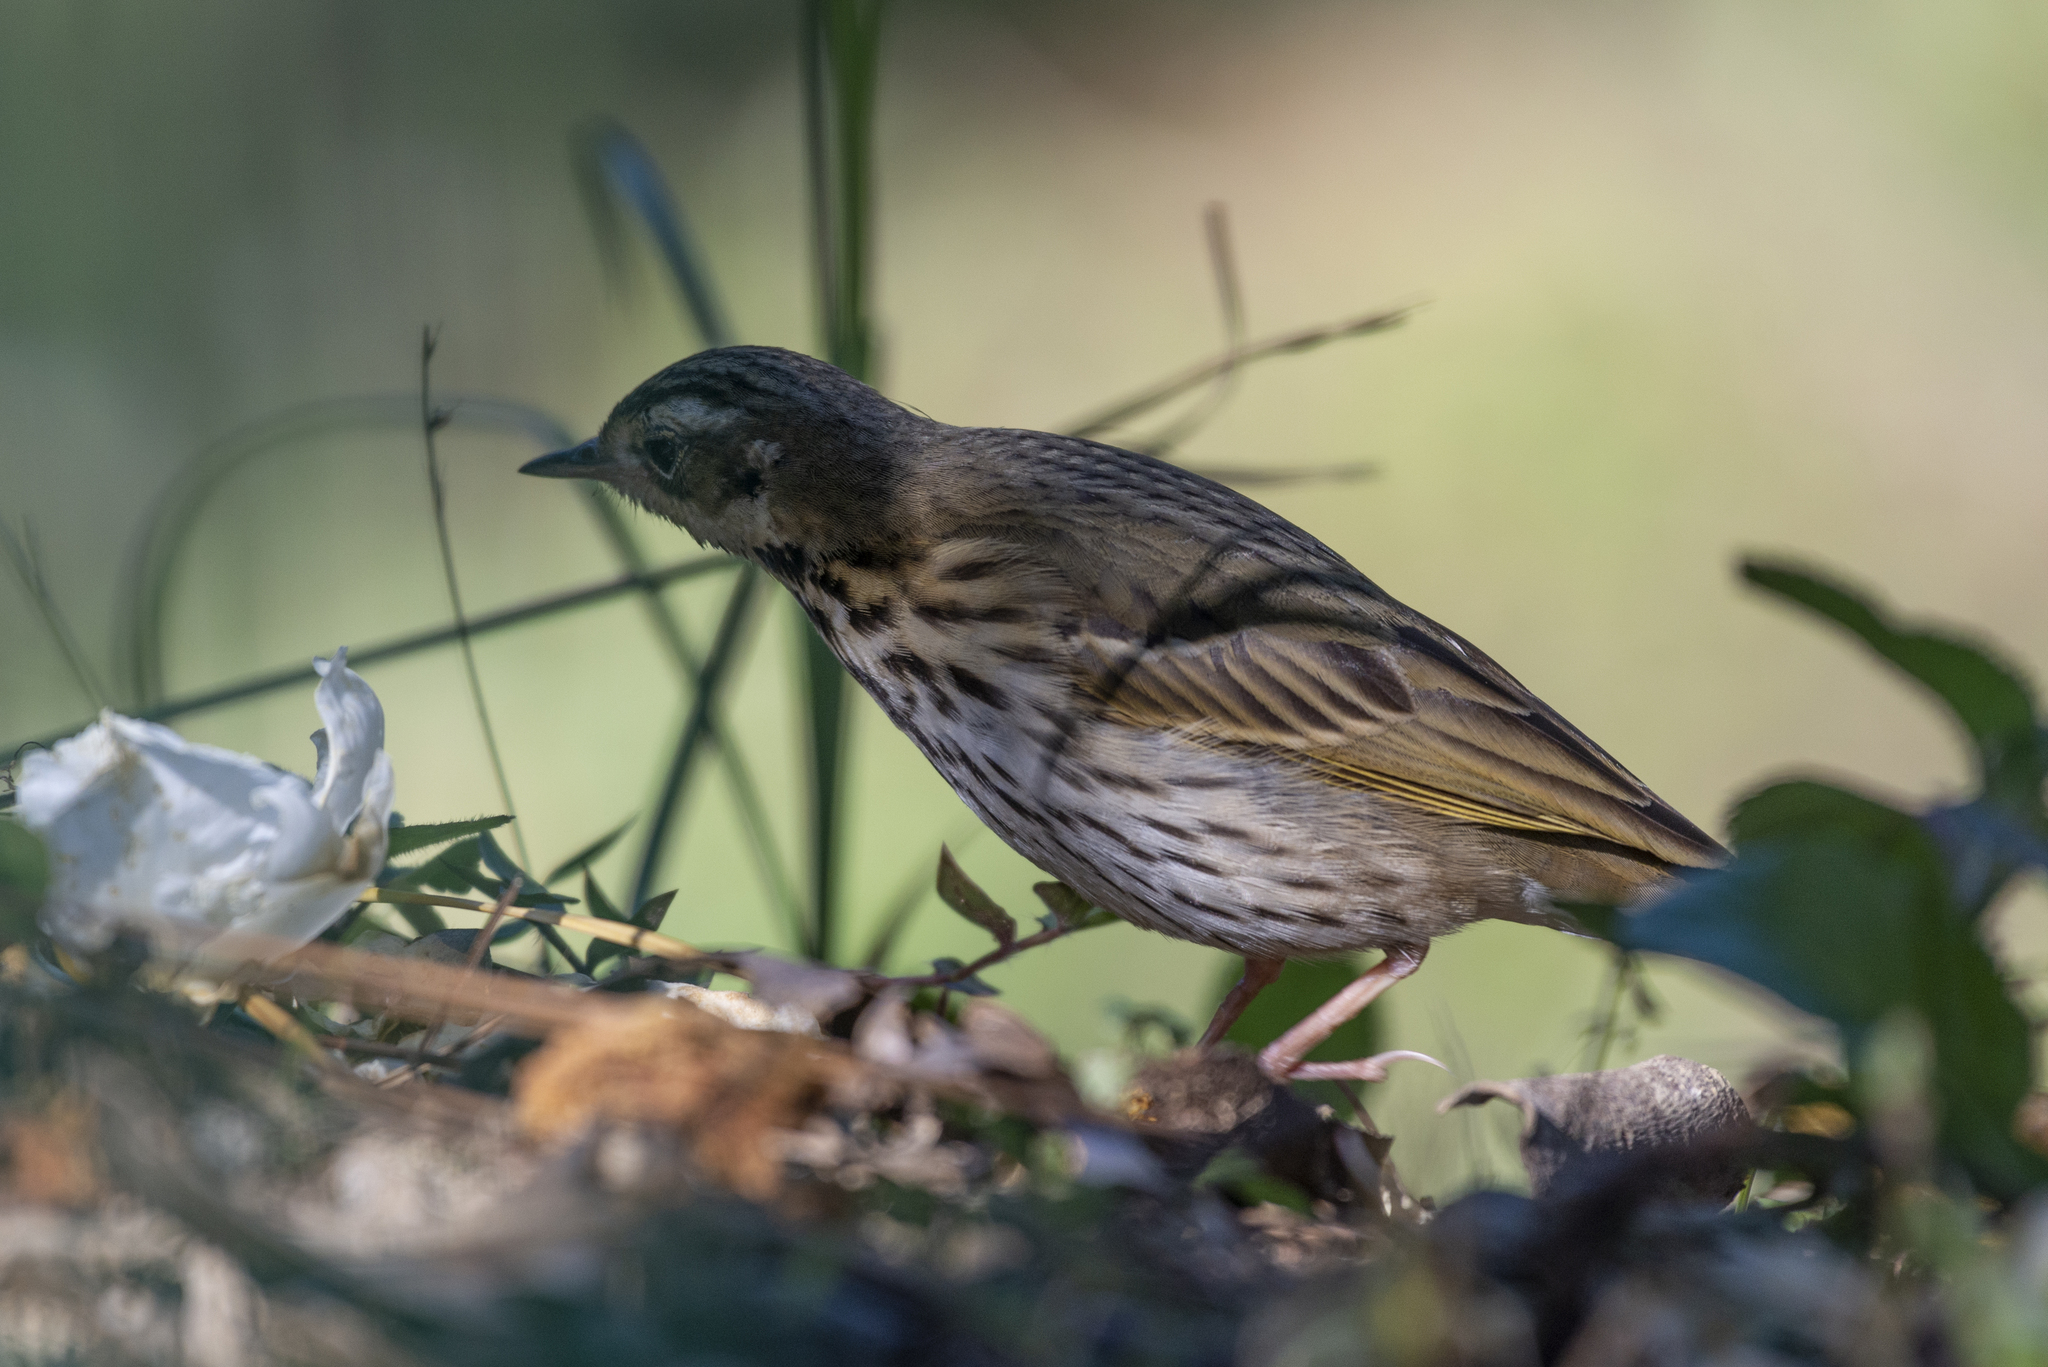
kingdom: Animalia
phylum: Chordata
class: Aves
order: Passeriformes
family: Motacillidae
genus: Anthus
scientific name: Anthus hodgsoni
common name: Olive-backed pipit
